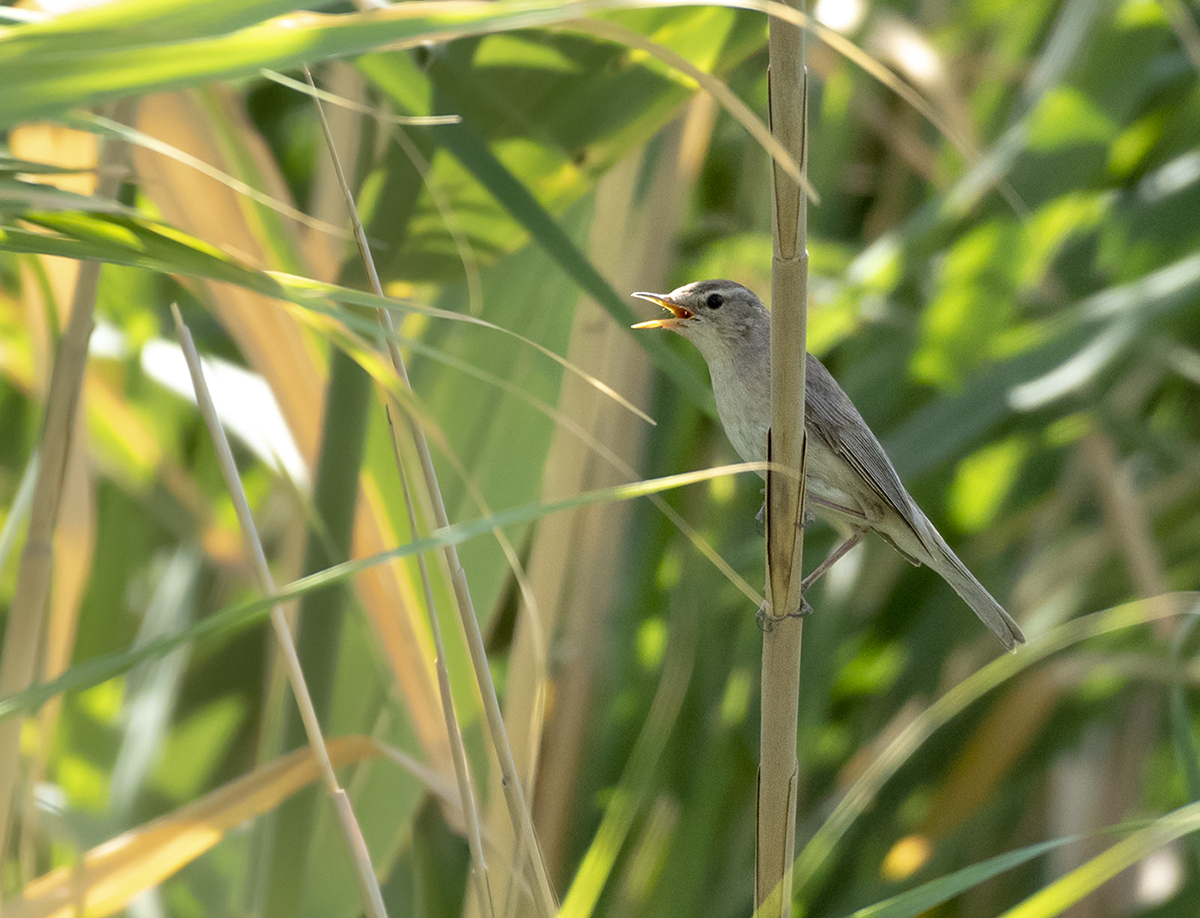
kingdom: Animalia
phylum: Chordata
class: Aves
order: Passeriformes
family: Acrocephalidae
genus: Iduna
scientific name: Iduna rama
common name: Sykes's warbler
